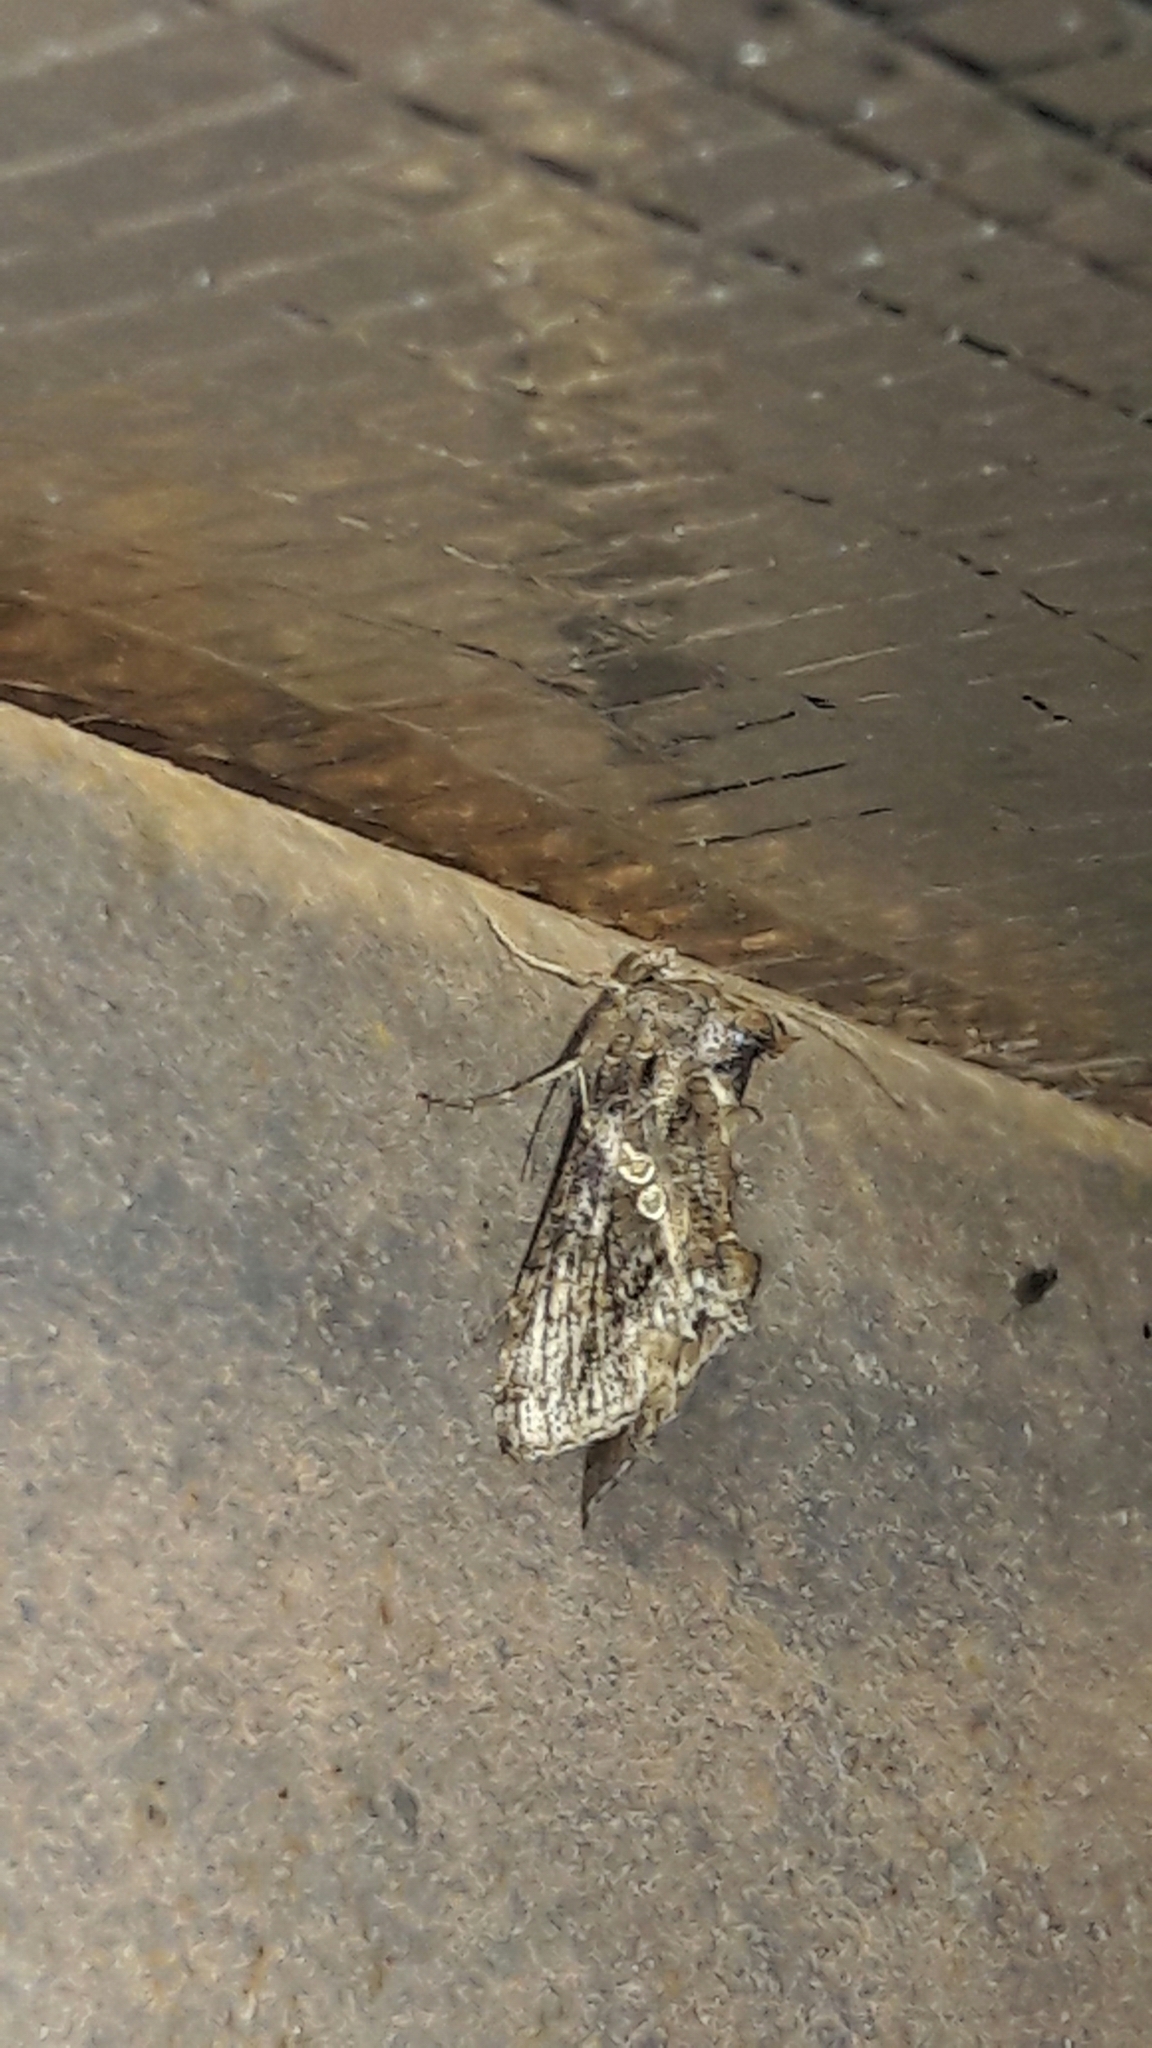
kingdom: Animalia
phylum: Arthropoda
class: Insecta
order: Lepidoptera
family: Noctuidae
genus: Chrysodeixis
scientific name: Chrysodeixis includens
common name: Cutworm moth
